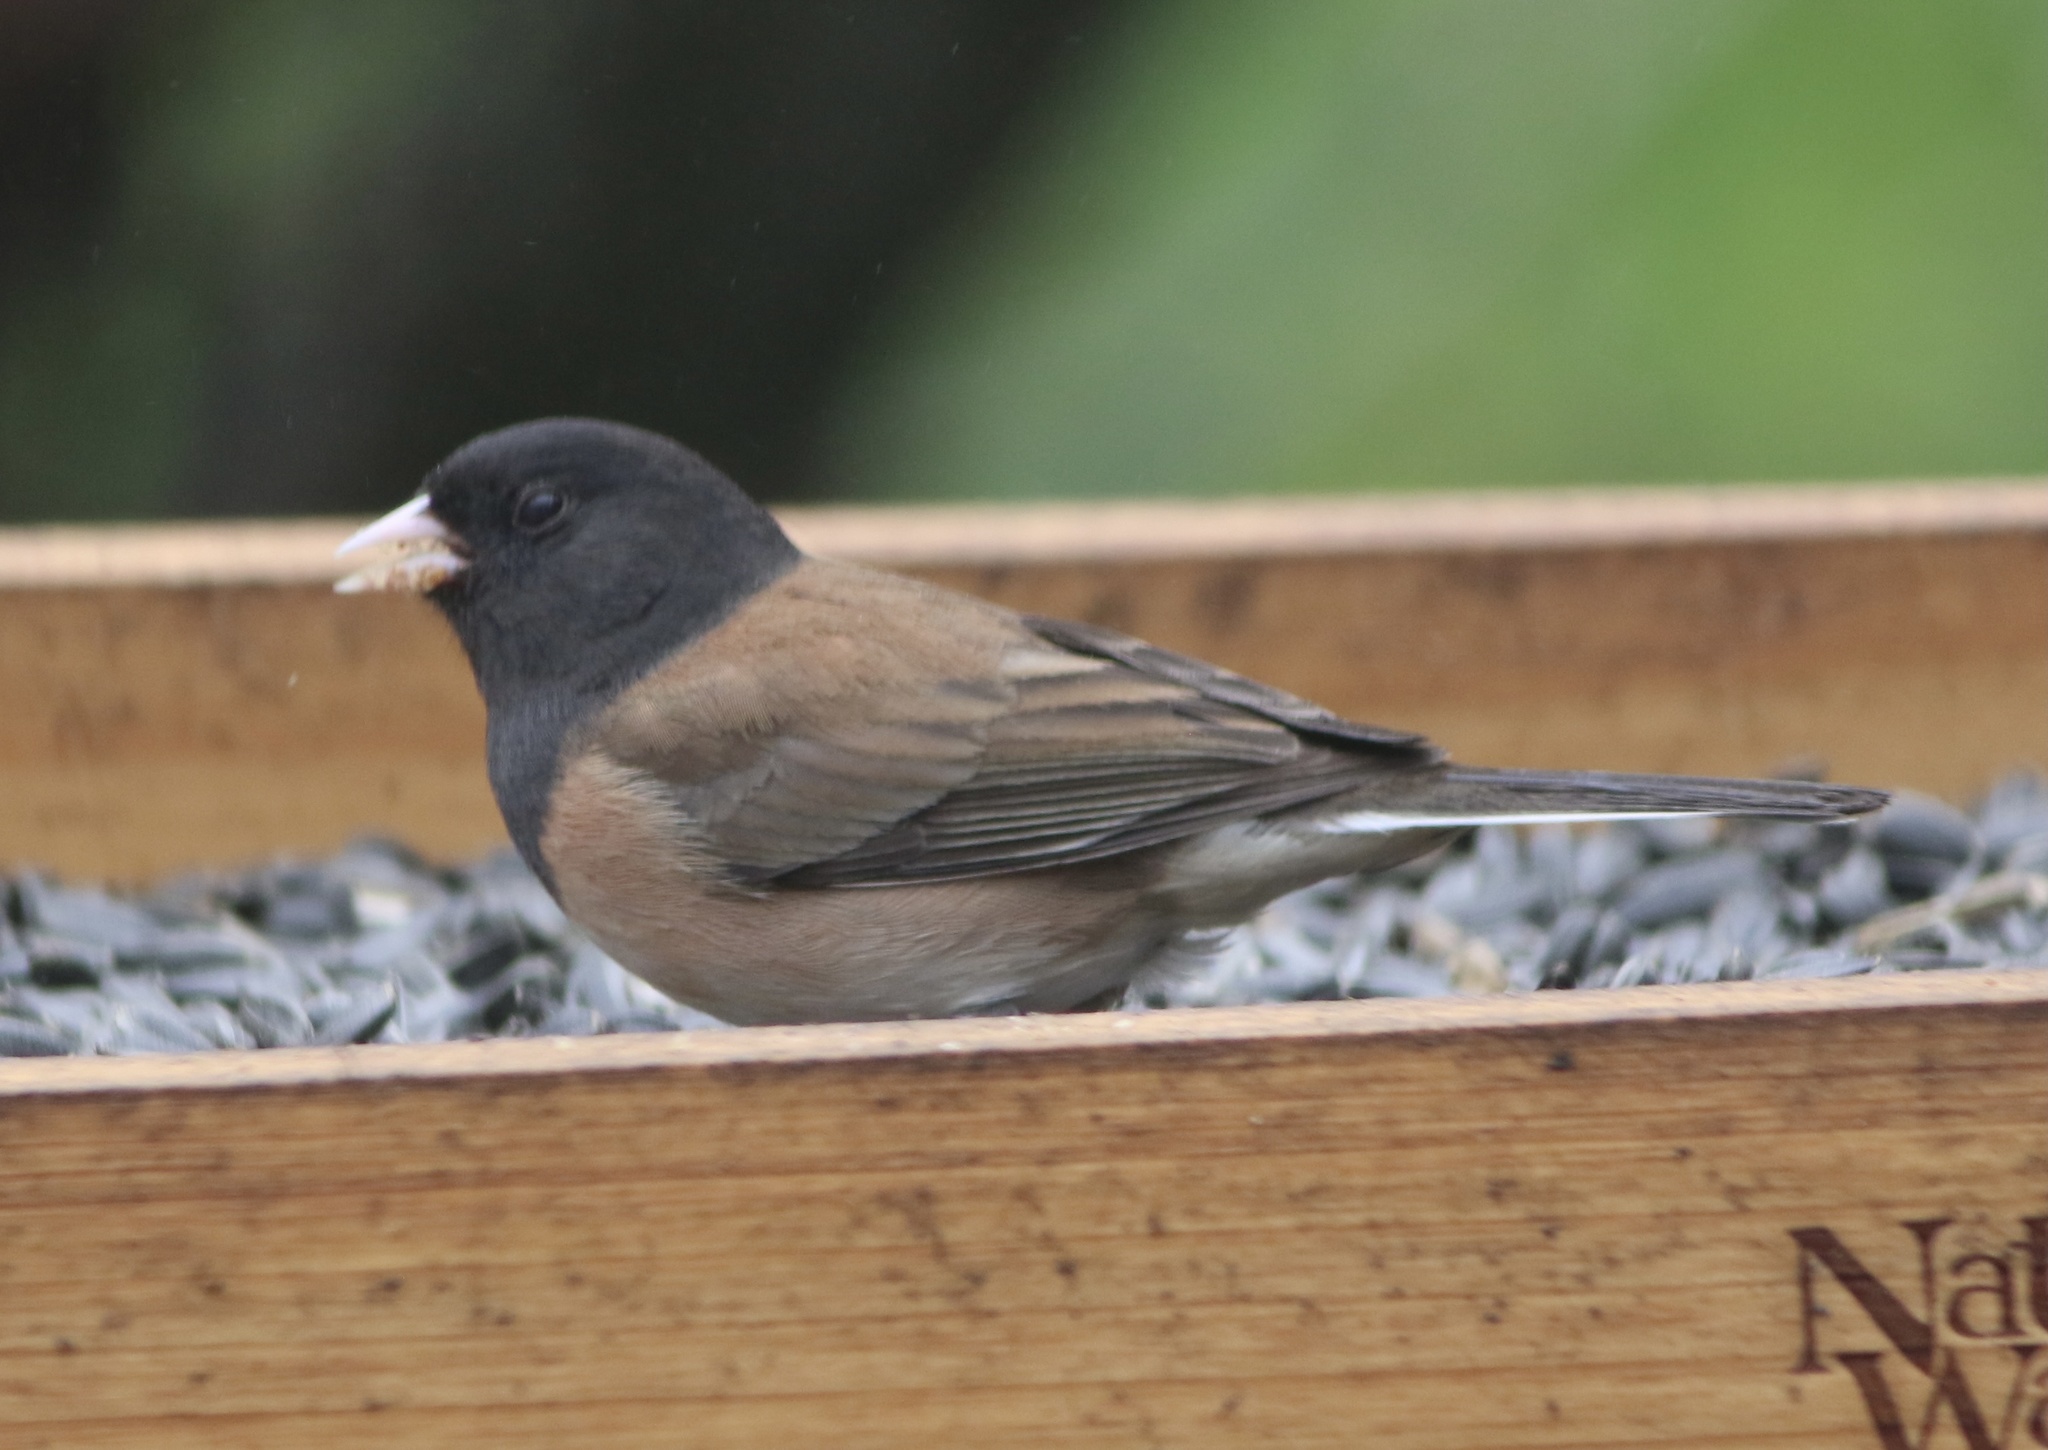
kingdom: Animalia
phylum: Chordata
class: Aves
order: Passeriformes
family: Passerellidae
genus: Junco
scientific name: Junco hyemalis
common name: Dark-eyed junco
